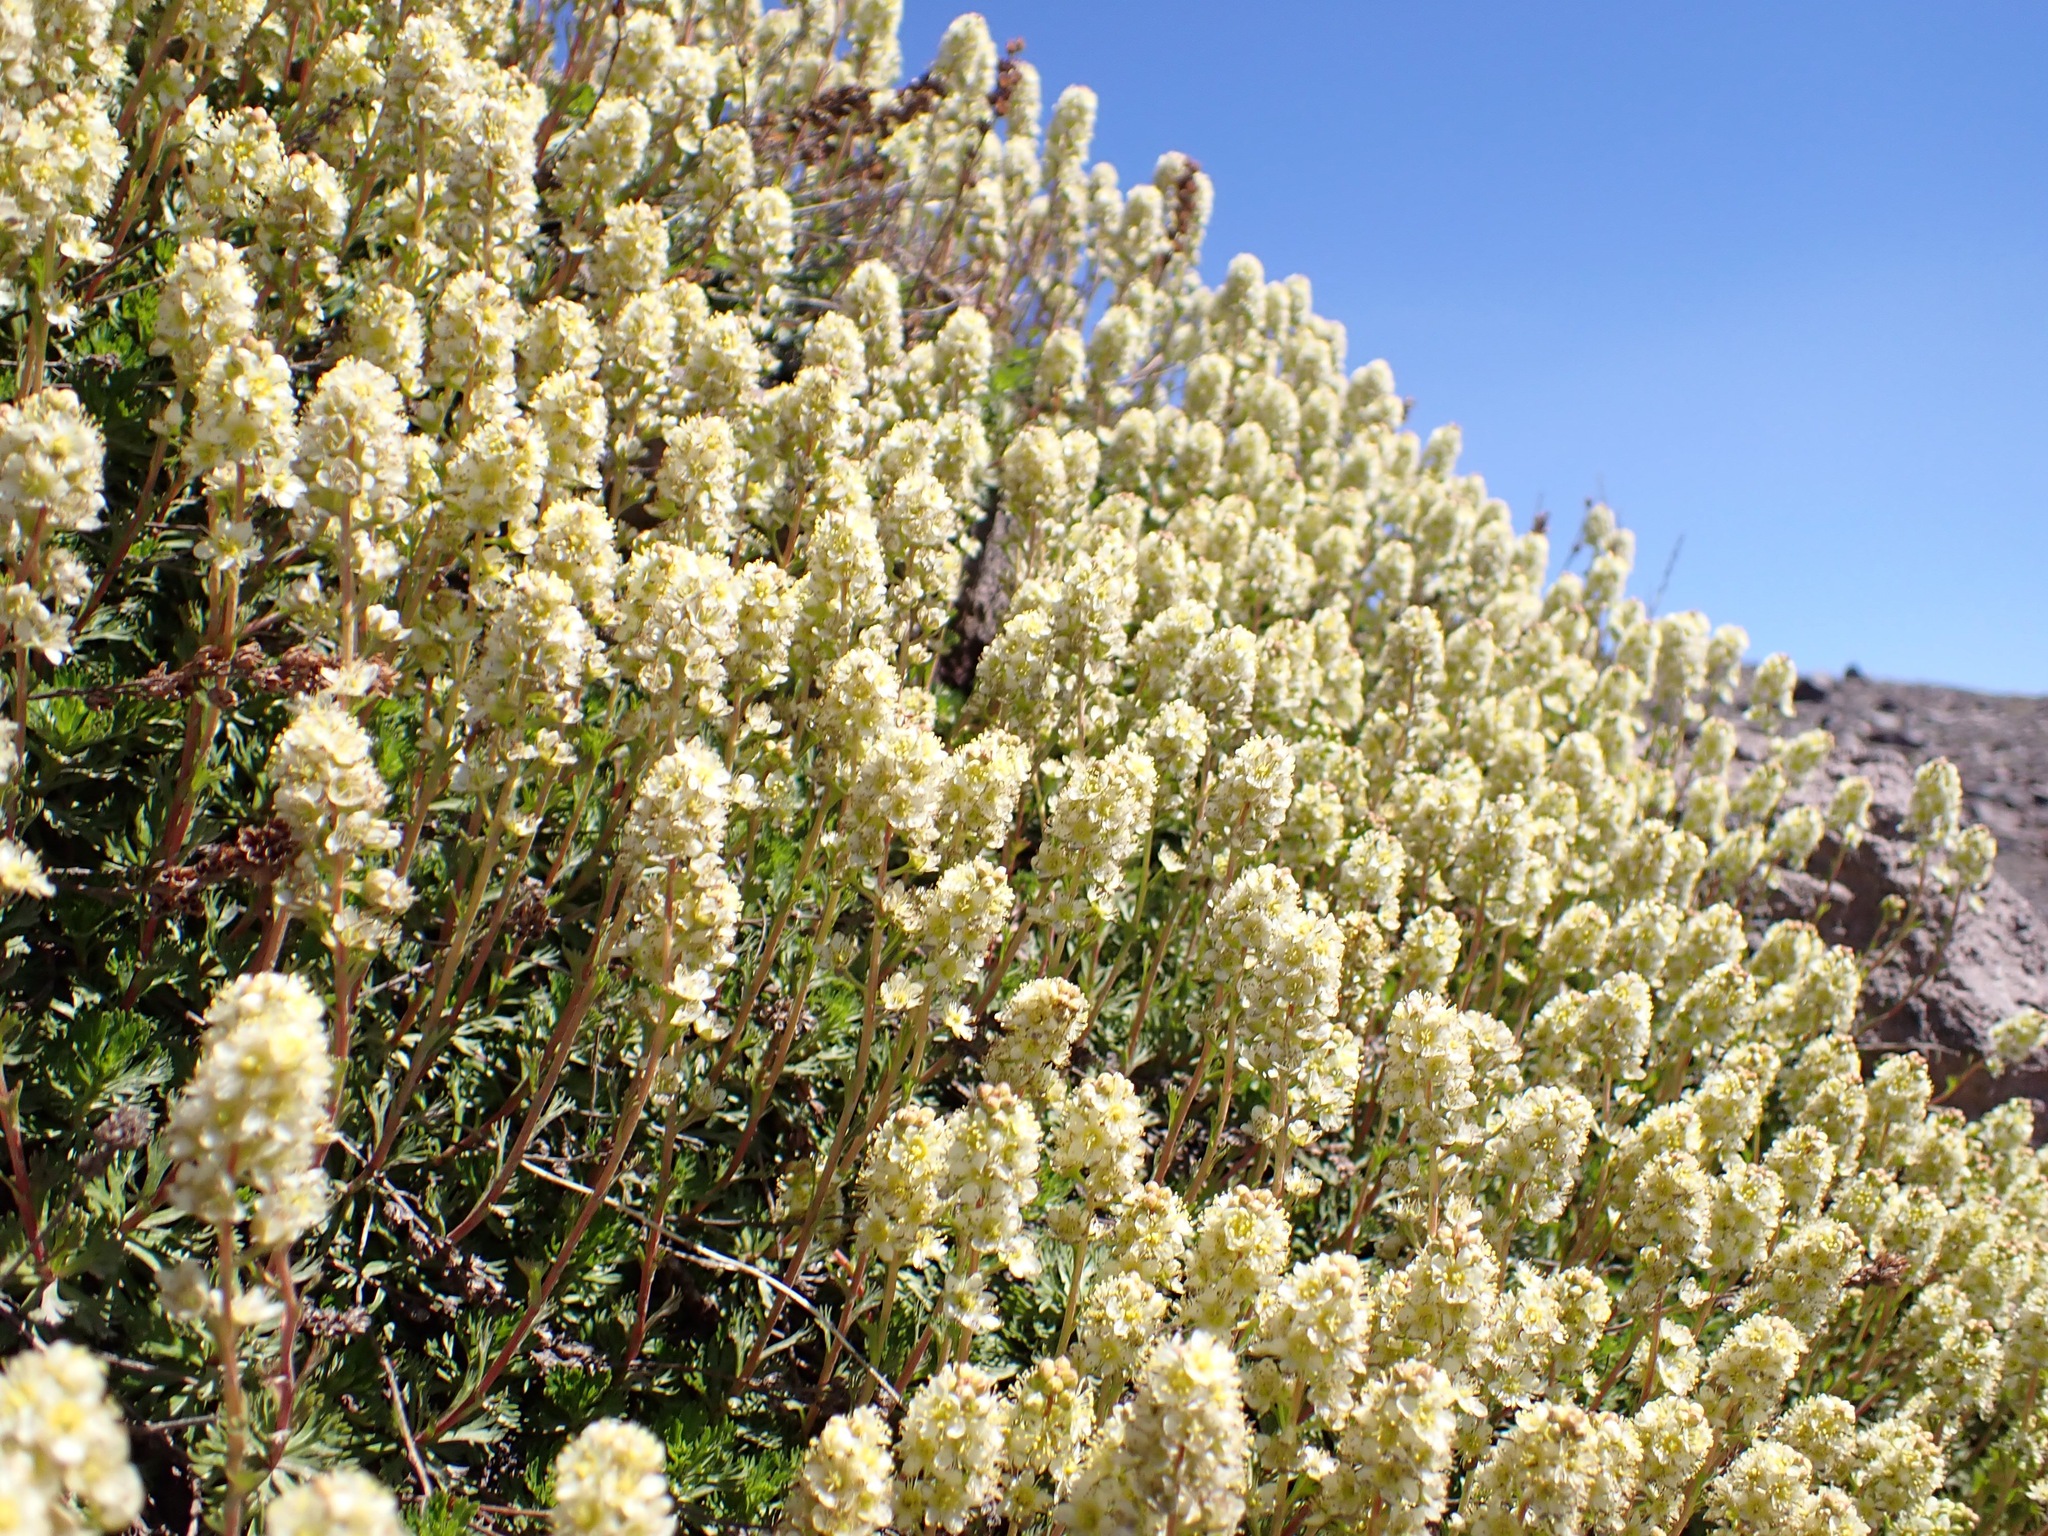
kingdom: Plantae
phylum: Tracheophyta
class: Magnoliopsida
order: Rosales
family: Rosaceae
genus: Luetkea
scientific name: Luetkea pectinata
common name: Partridgefoot
